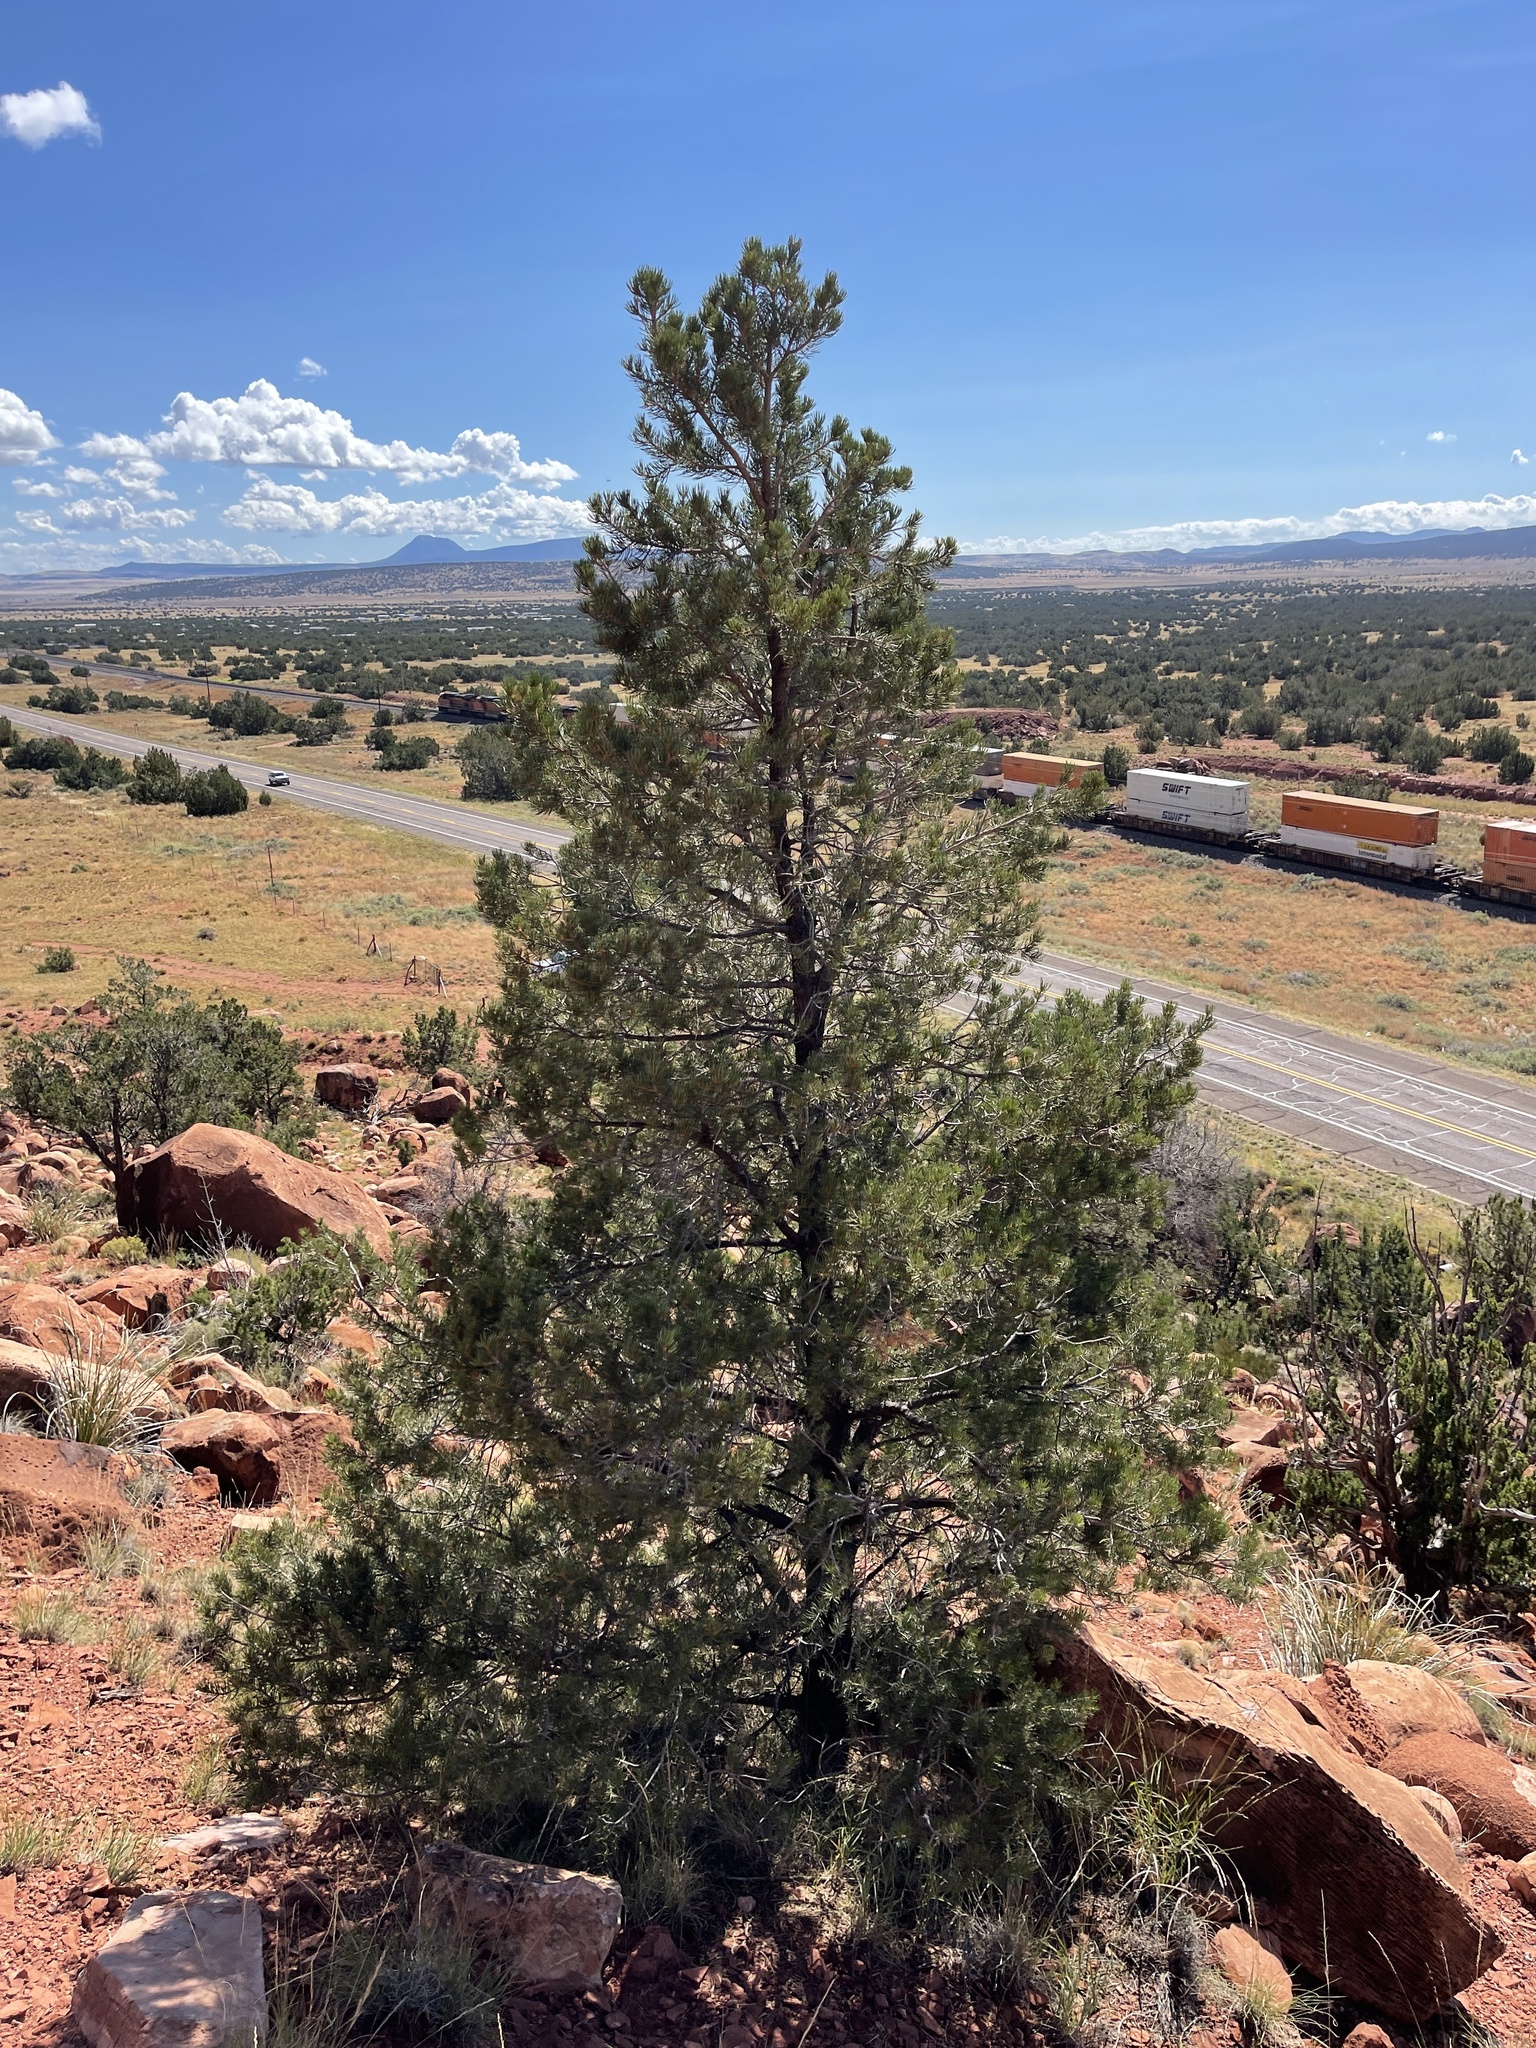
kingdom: Plantae
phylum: Tracheophyta
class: Pinopsida
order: Pinales
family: Pinaceae
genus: Pinus
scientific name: Pinus edulis
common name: Colorado pinyon
